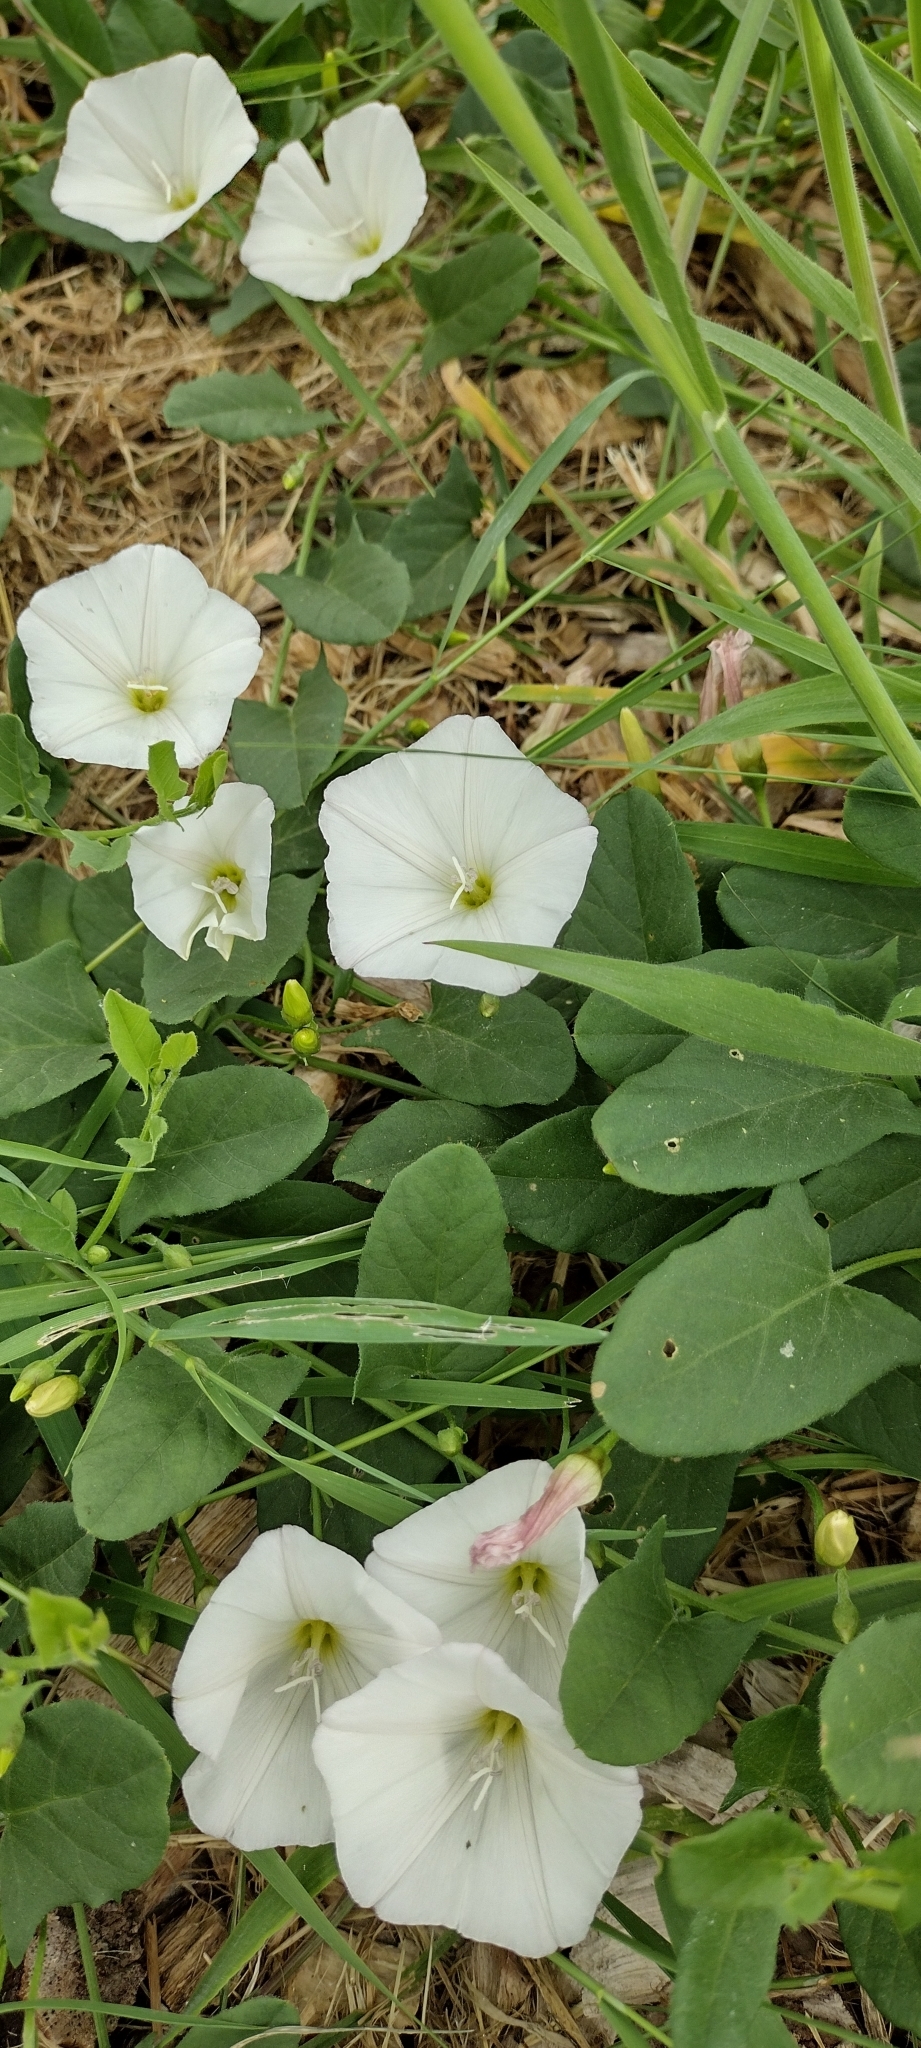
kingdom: Plantae
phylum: Tracheophyta
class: Magnoliopsida
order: Solanales
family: Convolvulaceae
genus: Convolvulus
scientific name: Convolvulus arvensis
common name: Field bindweed
